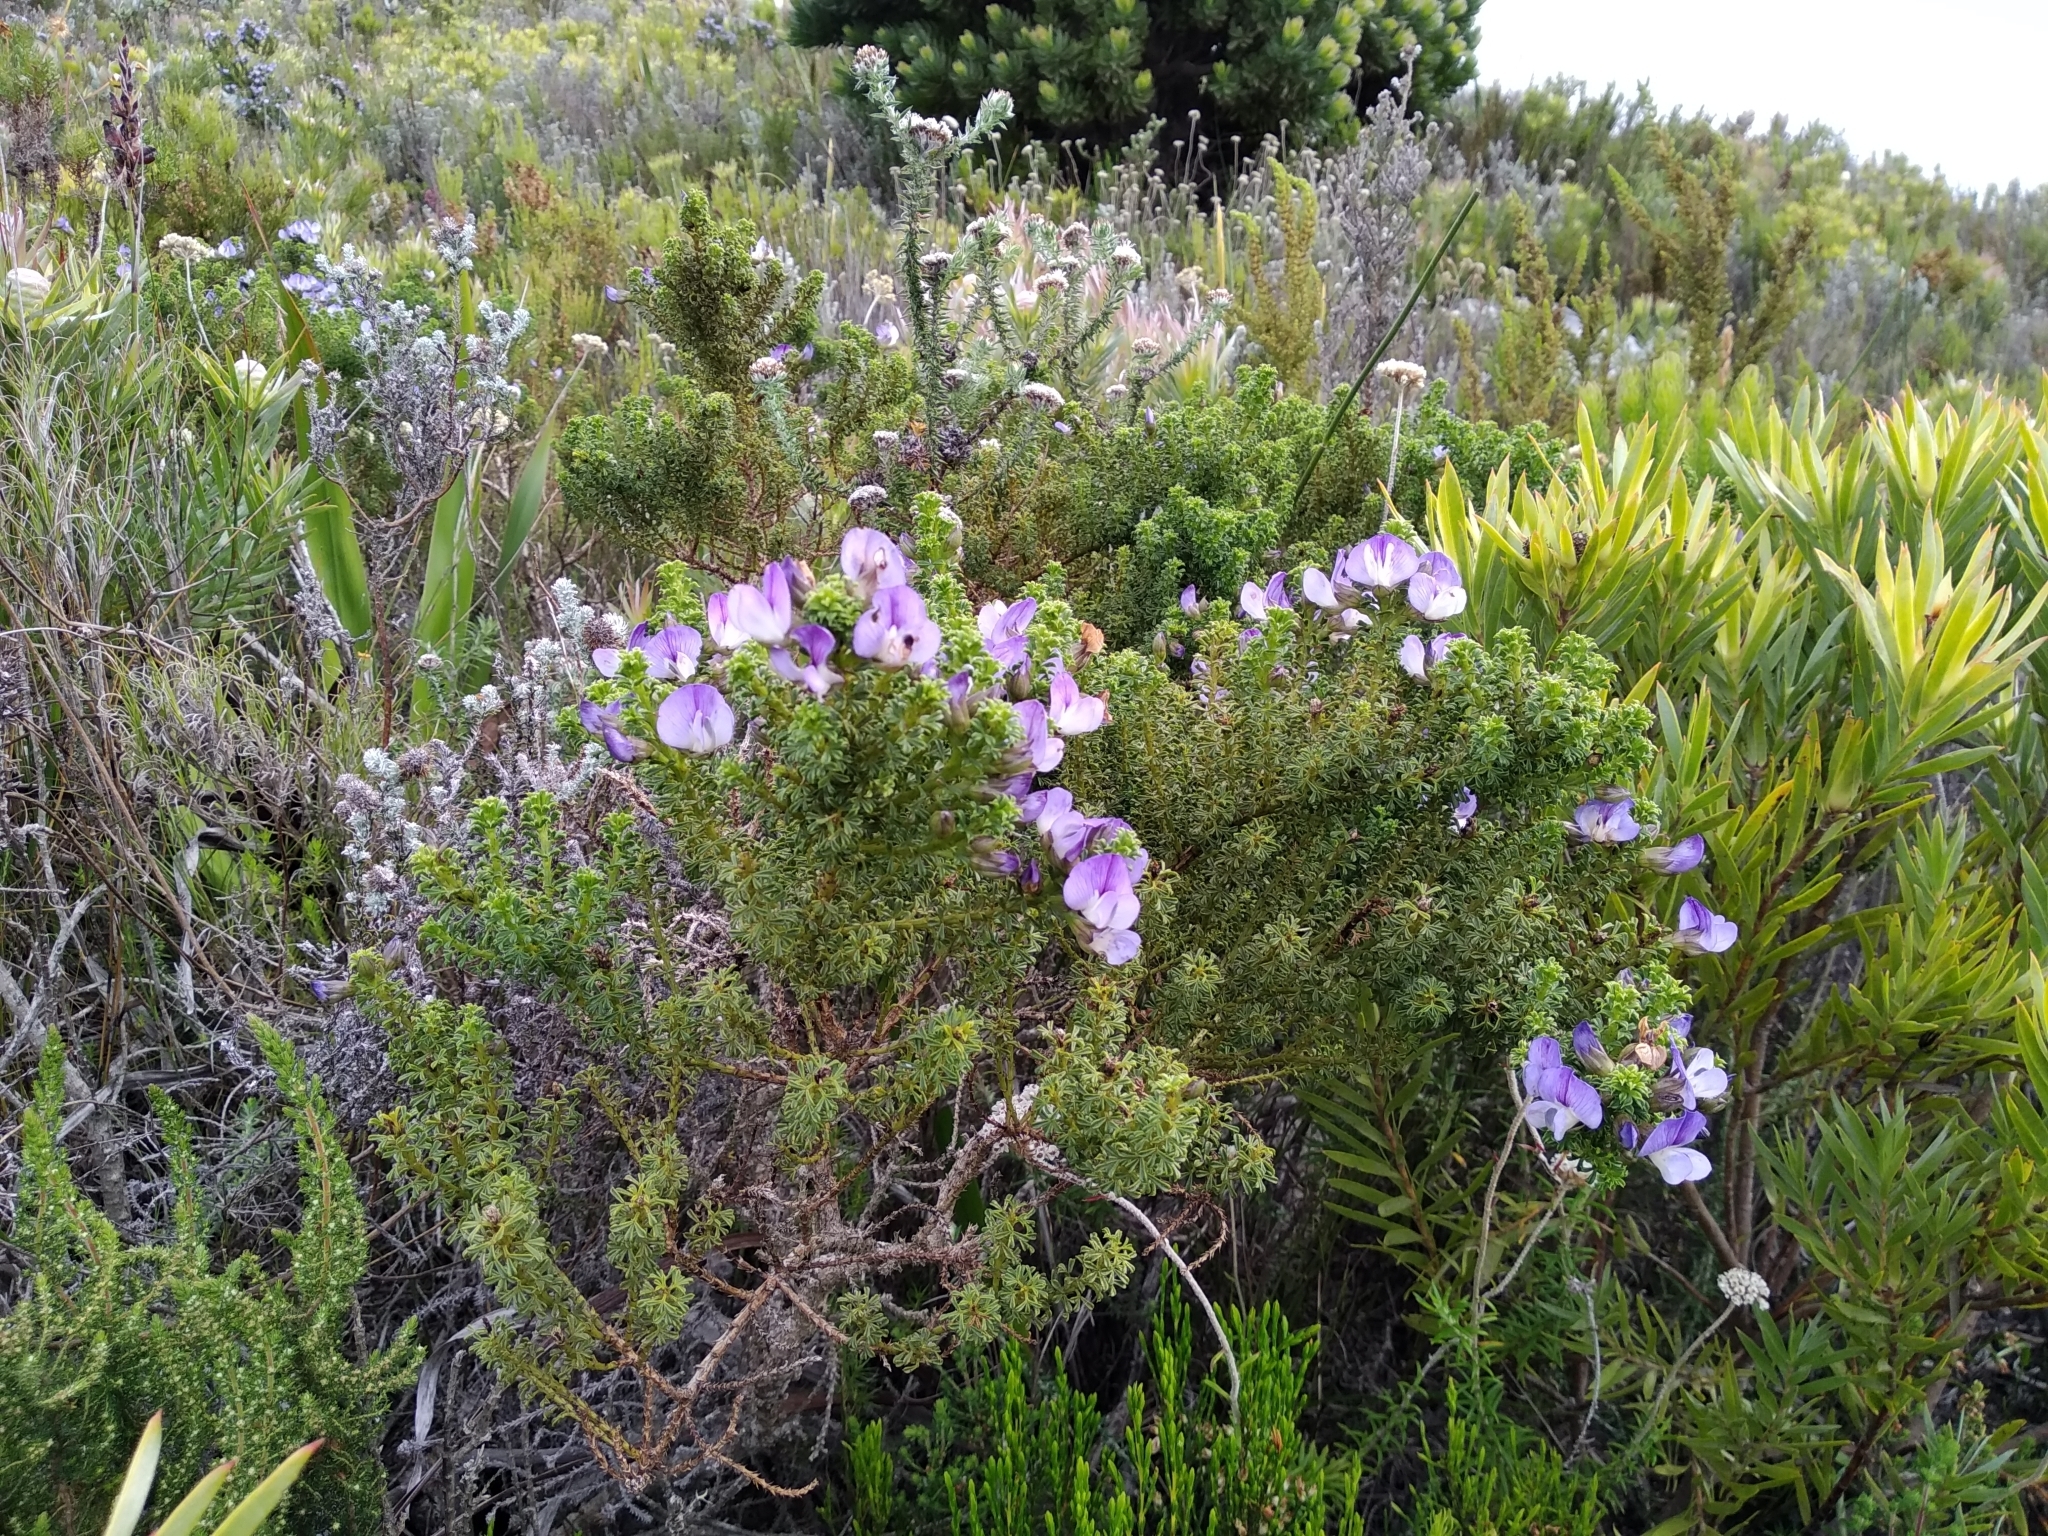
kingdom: Plantae
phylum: Tracheophyta
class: Magnoliopsida
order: Fabales
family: Fabaceae
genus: Psoralea
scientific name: Psoralea aculeata
